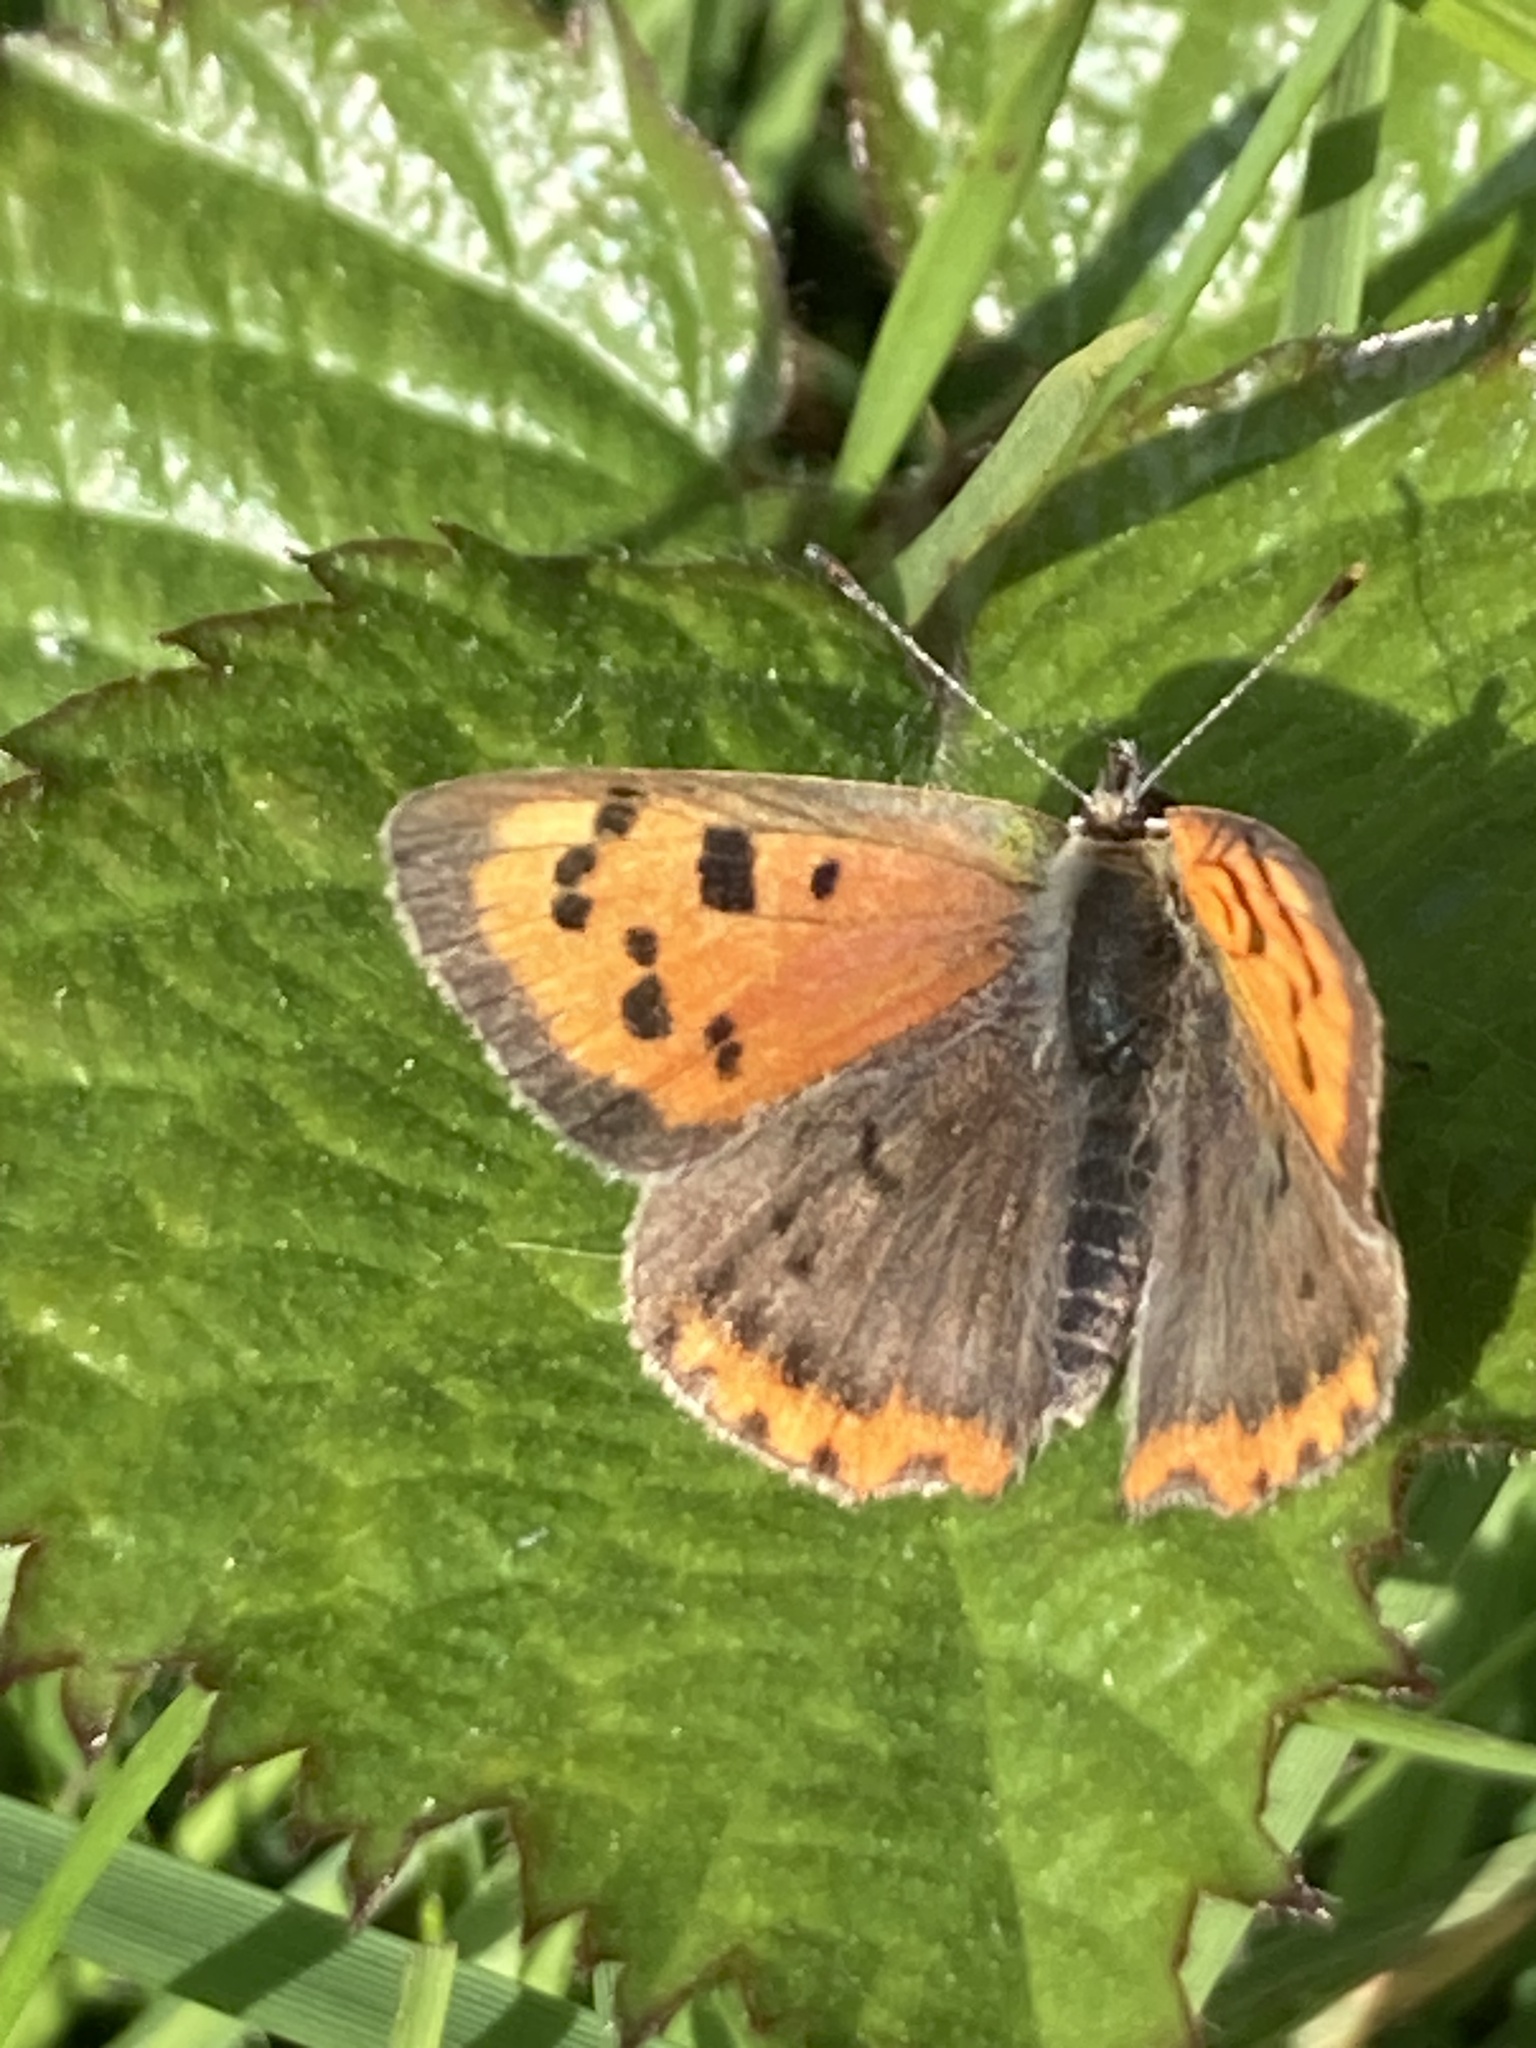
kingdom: Animalia
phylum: Arthropoda
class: Insecta
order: Lepidoptera
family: Lycaenidae
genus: Lycaena
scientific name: Lycaena phlaeas
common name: Small copper
